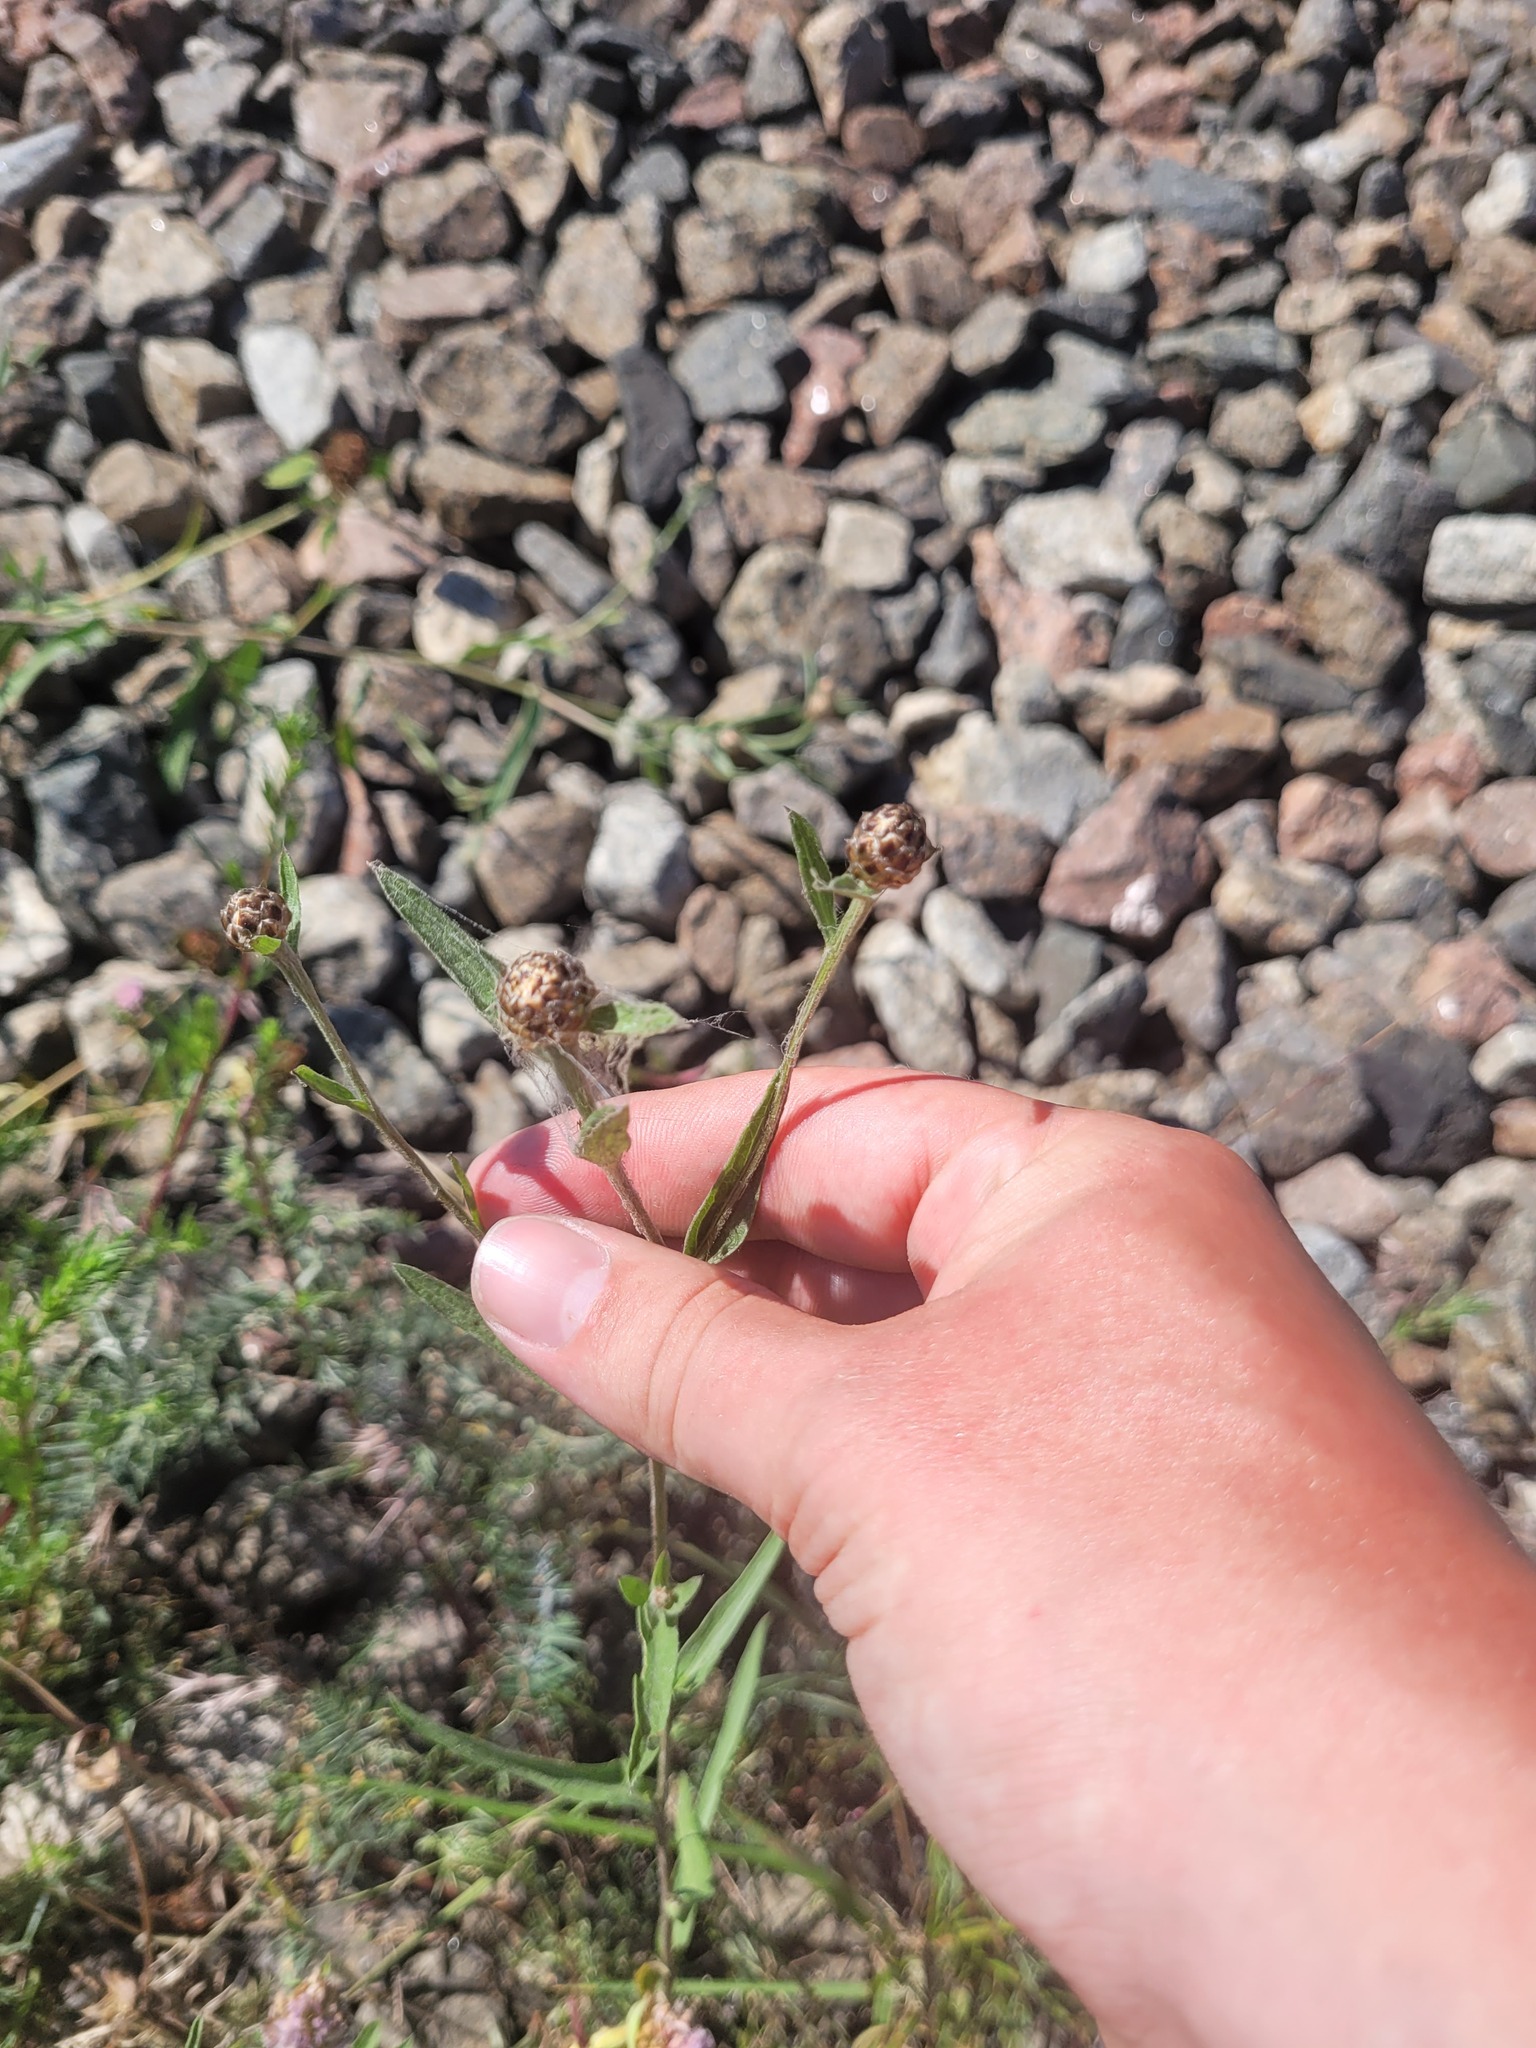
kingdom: Plantae
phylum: Tracheophyta
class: Magnoliopsida
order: Asterales
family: Asteraceae
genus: Centaurea
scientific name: Centaurea jacea
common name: Brown knapweed
